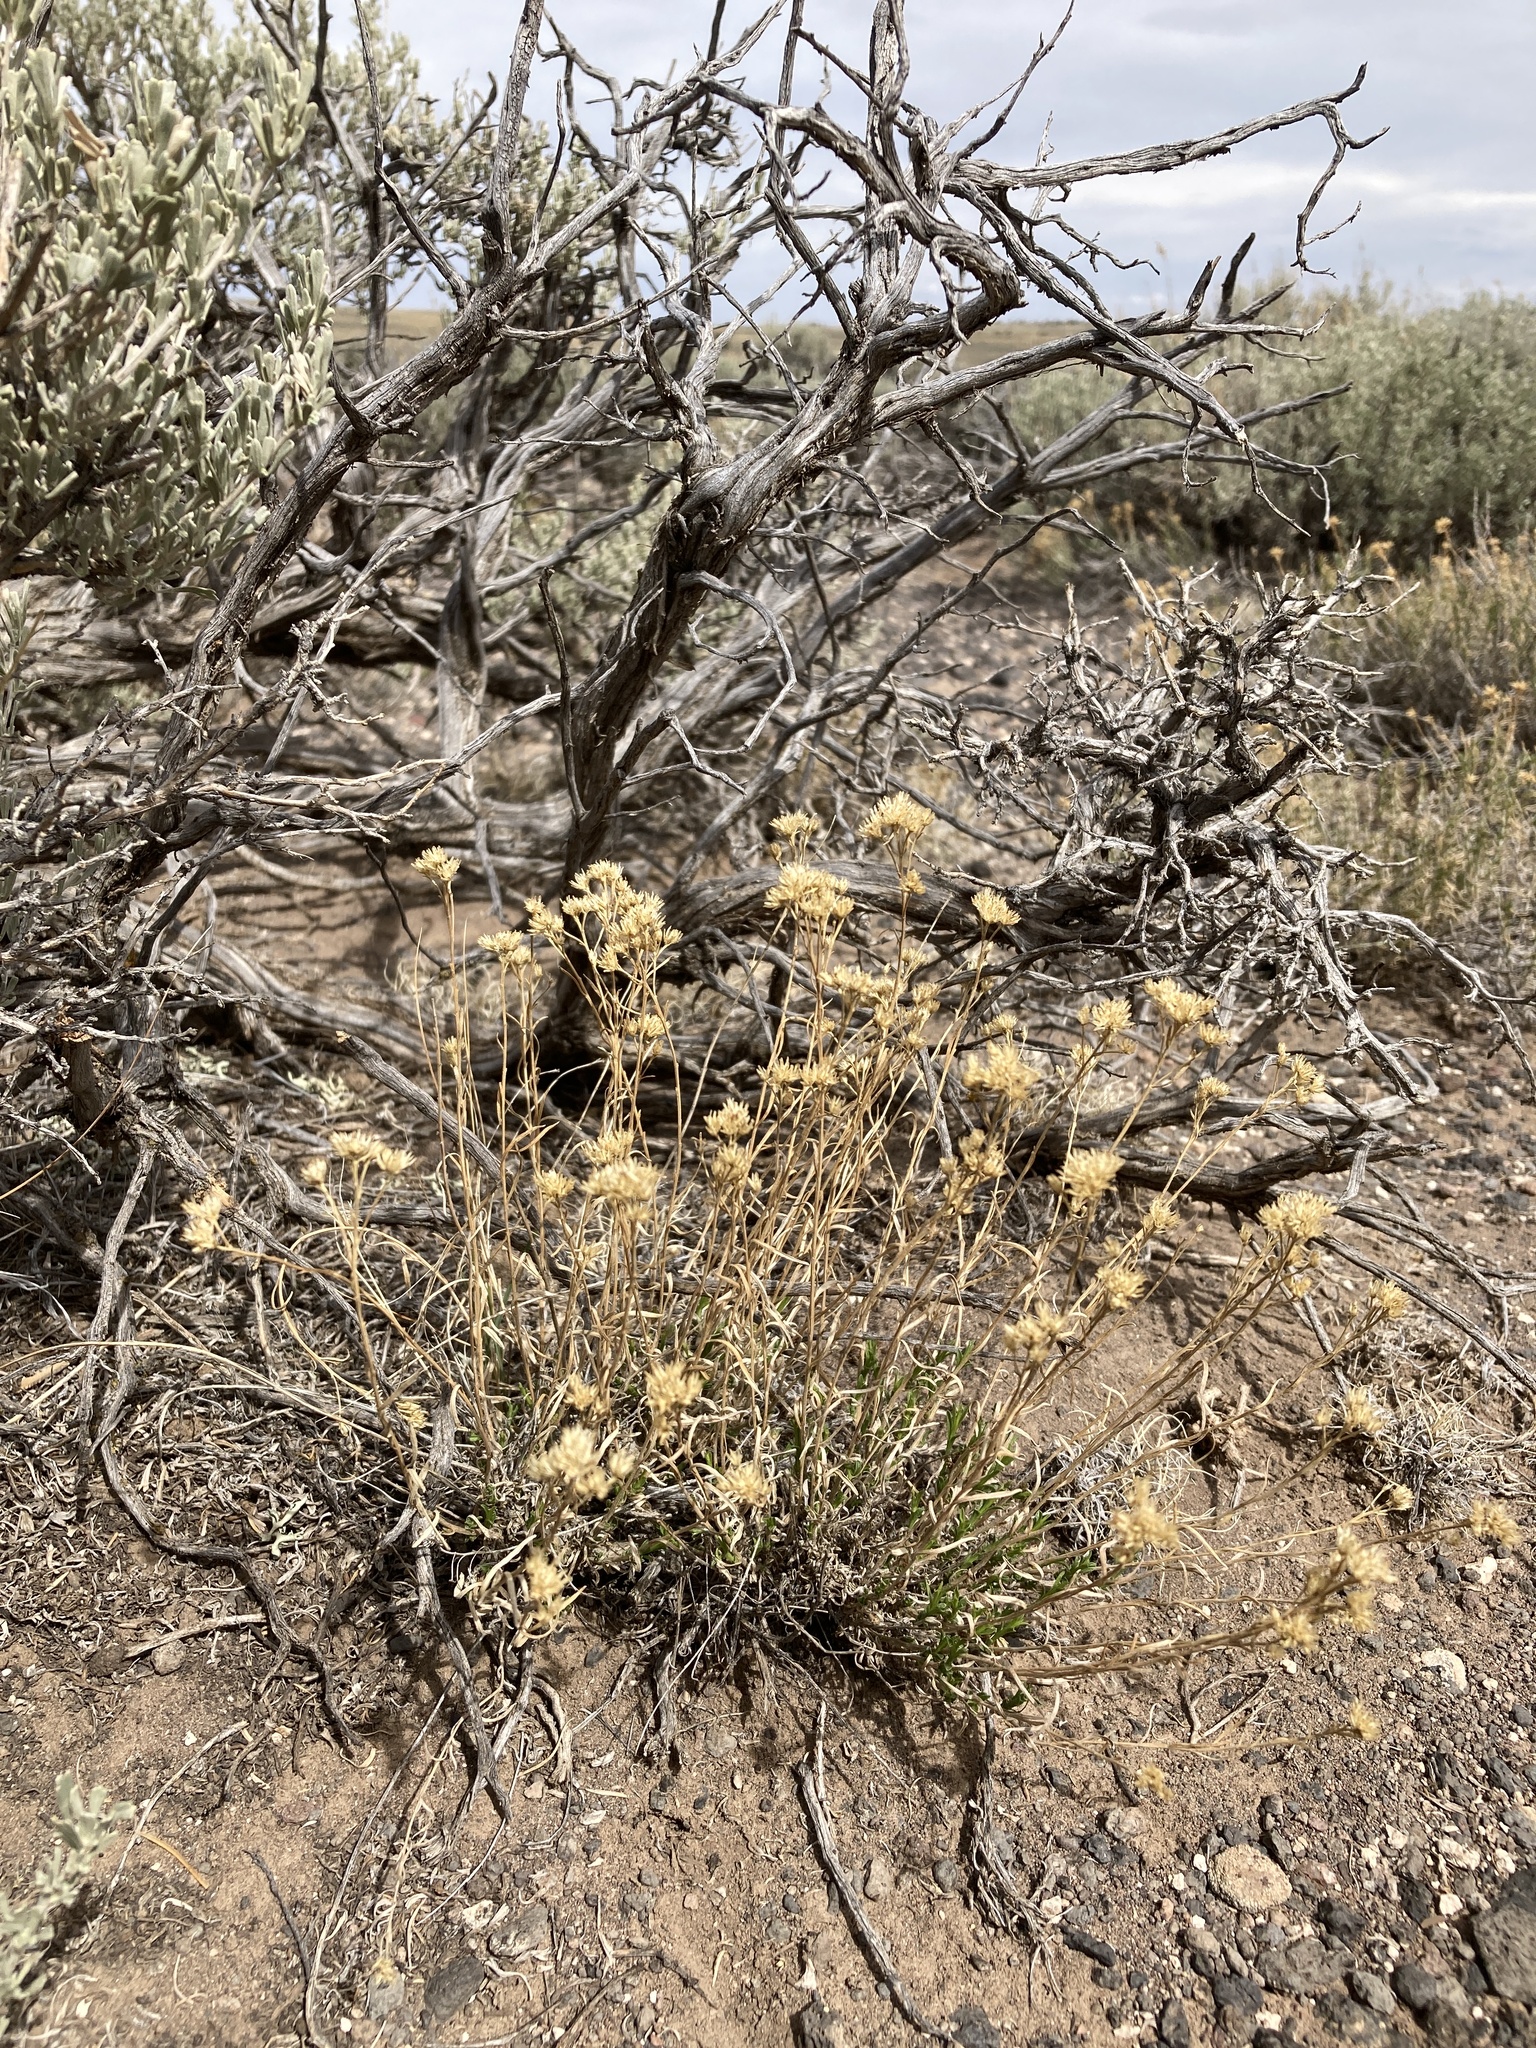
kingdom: Plantae
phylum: Tracheophyta
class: Magnoliopsida
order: Asterales
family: Asteraceae
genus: Gutierrezia
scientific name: Gutierrezia sarothrae
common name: Broom snakeweed
